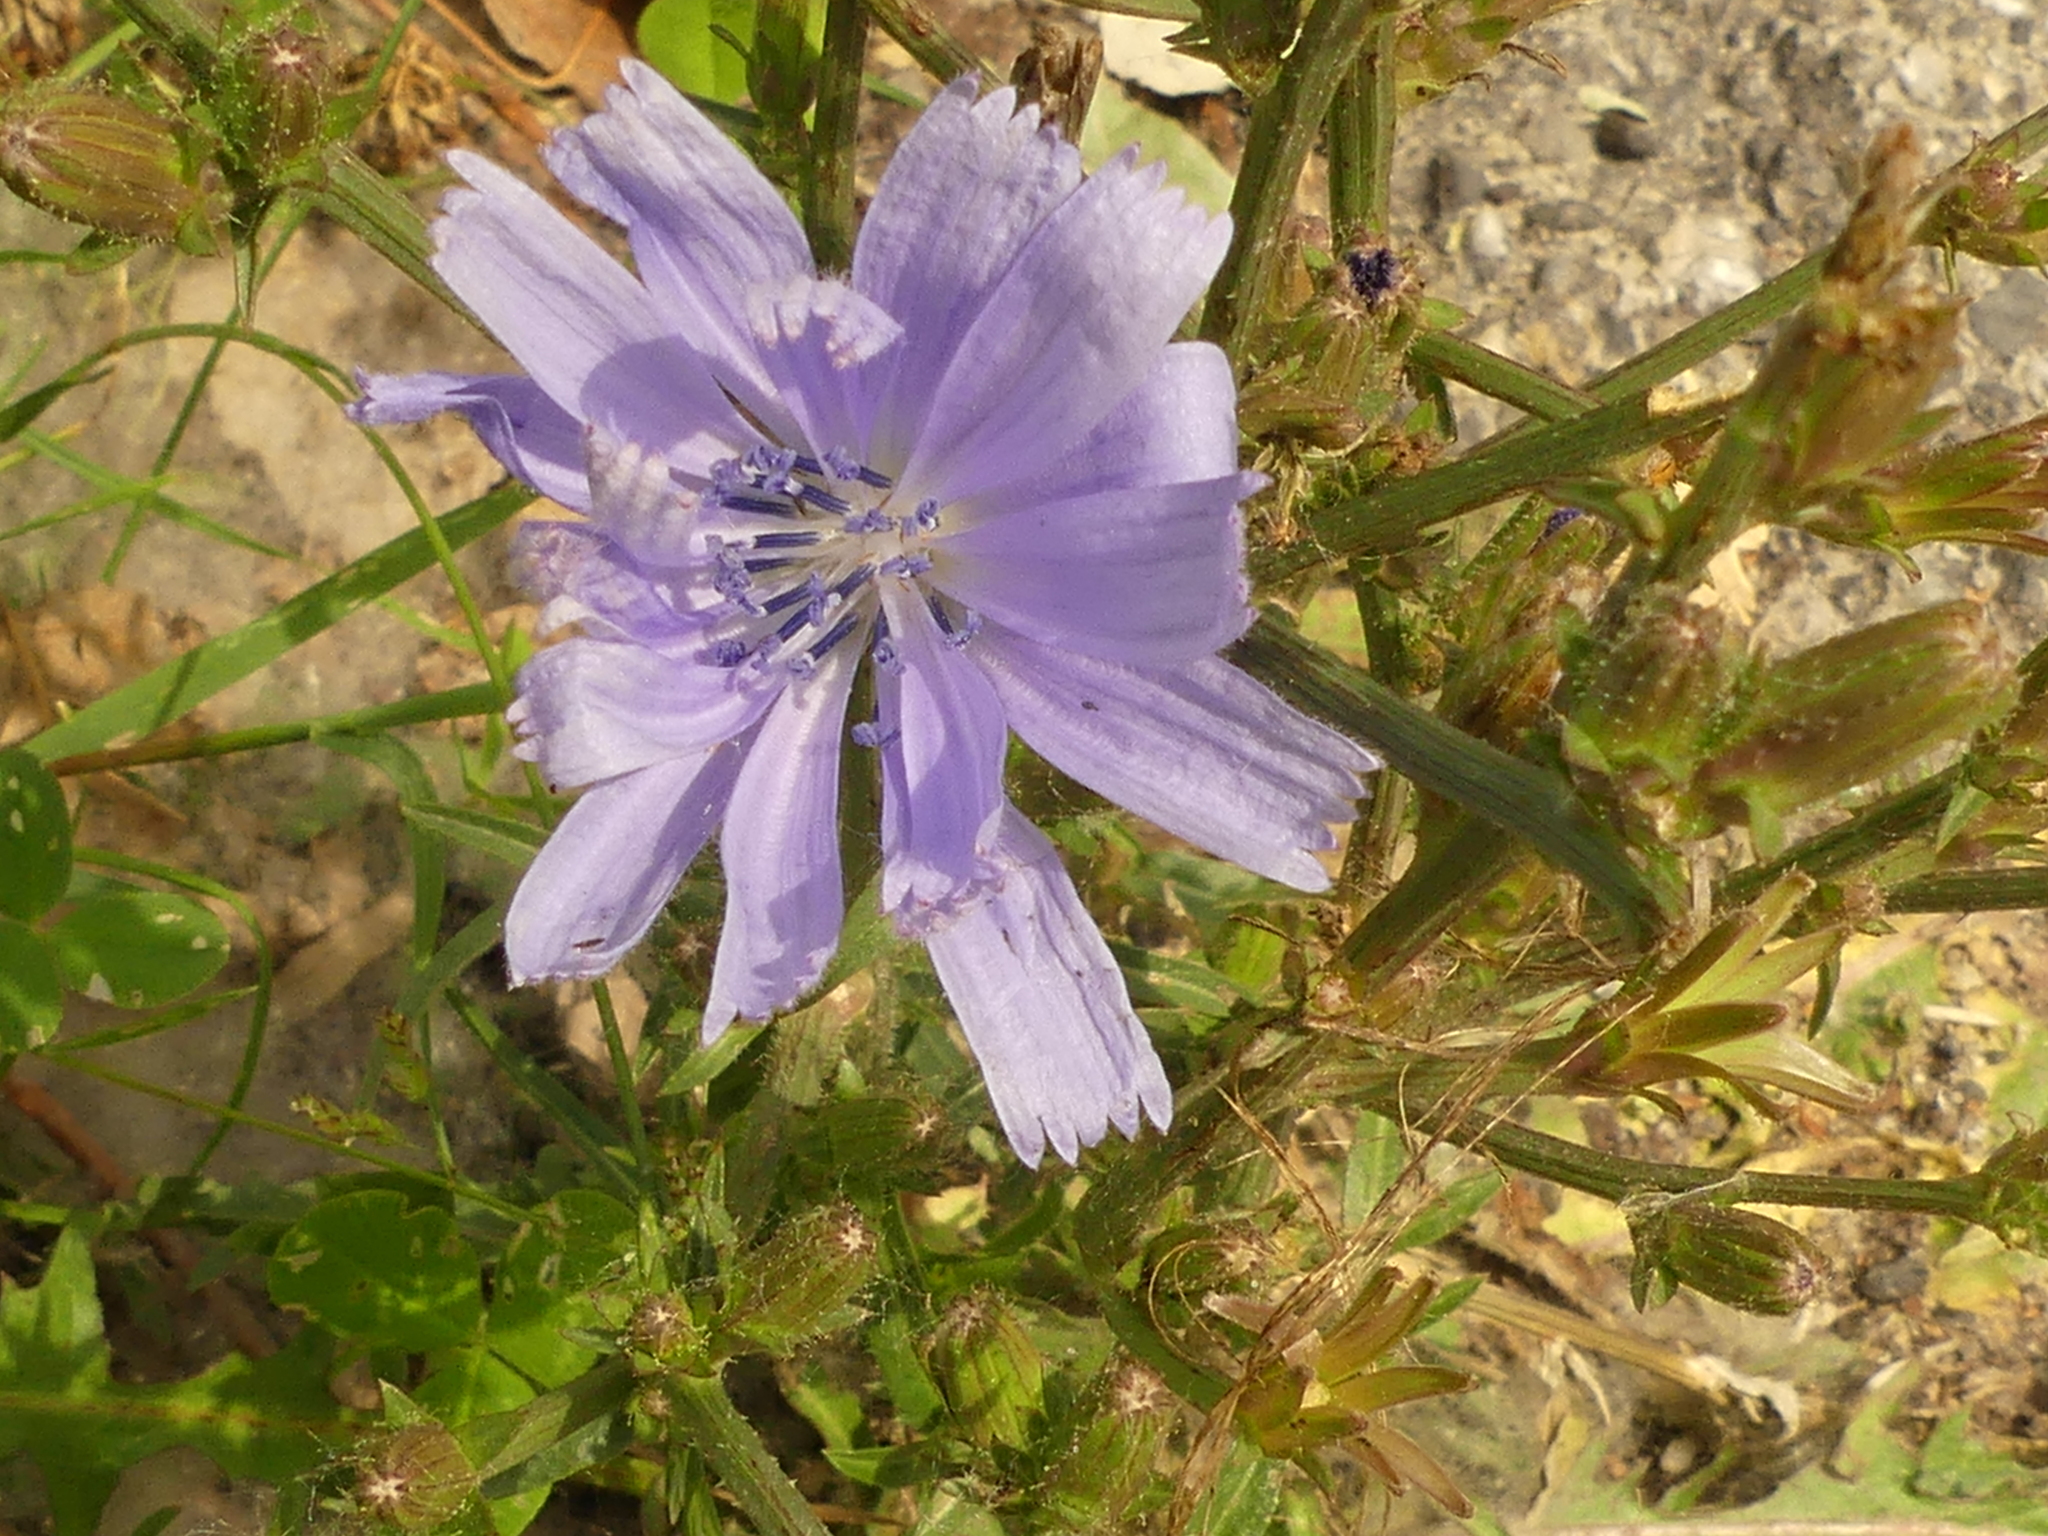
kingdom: Plantae
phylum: Tracheophyta
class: Magnoliopsida
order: Asterales
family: Asteraceae
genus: Cichorium
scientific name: Cichorium intybus
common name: Chicory
